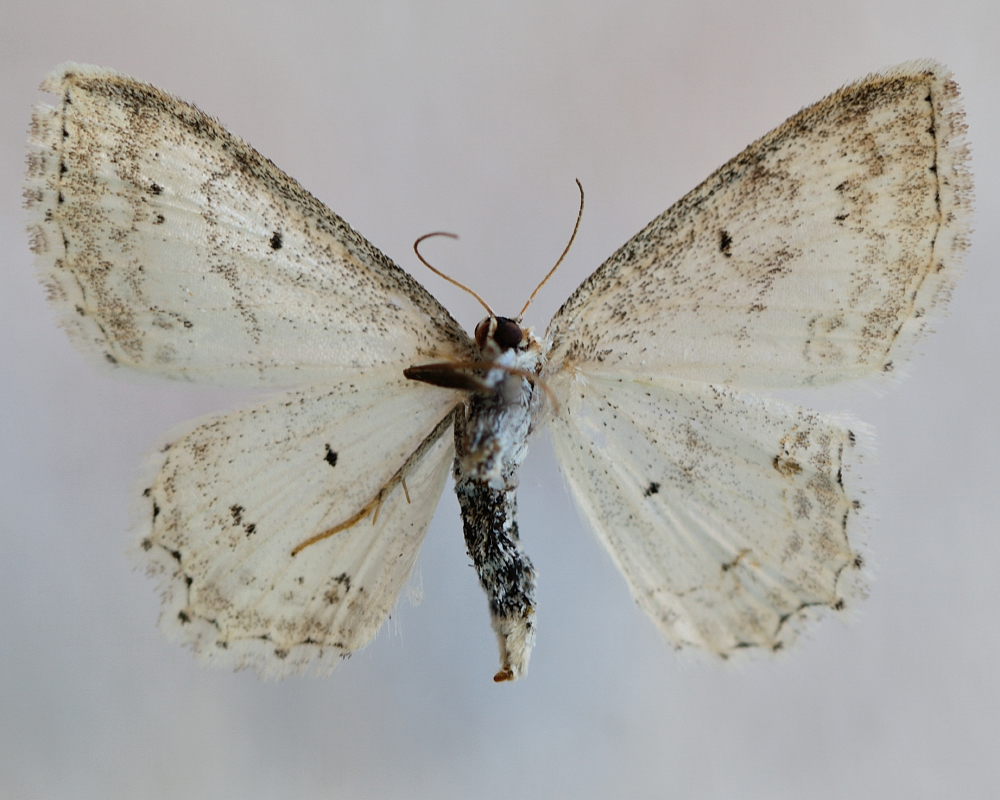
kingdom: Animalia
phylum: Arthropoda
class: Insecta
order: Lepidoptera
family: Geometridae
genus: Scopula
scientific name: Scopula ornata
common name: Lace border
